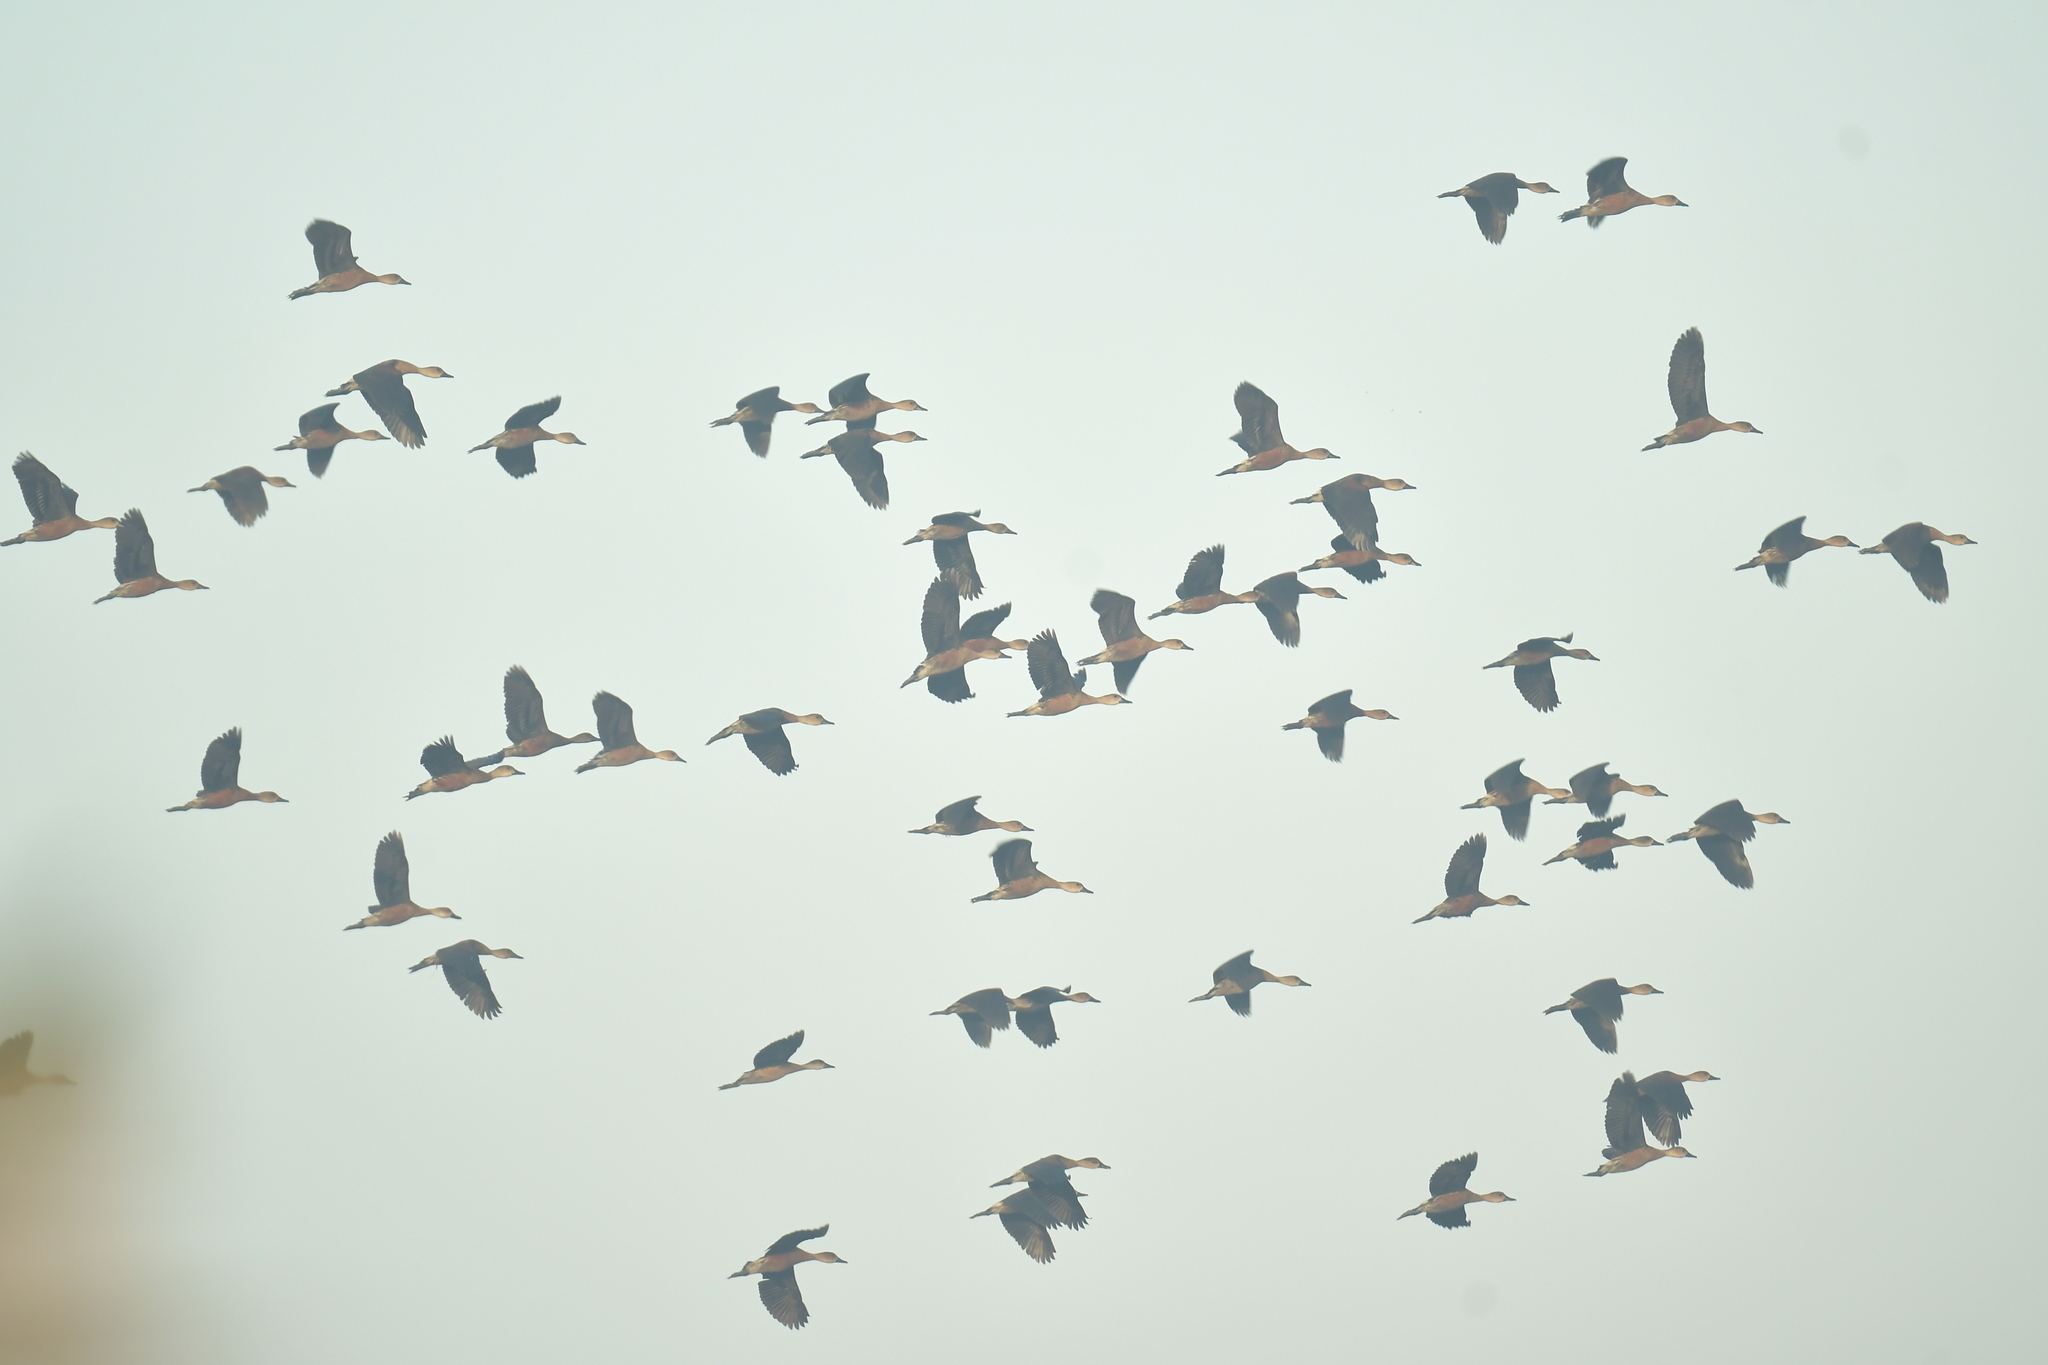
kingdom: Animalia
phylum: Chordata
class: Aves
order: Anseriformes
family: Anatidae
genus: Dendrocygna
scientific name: Dendrocygna arcuata
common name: Wandering whistling-duck
